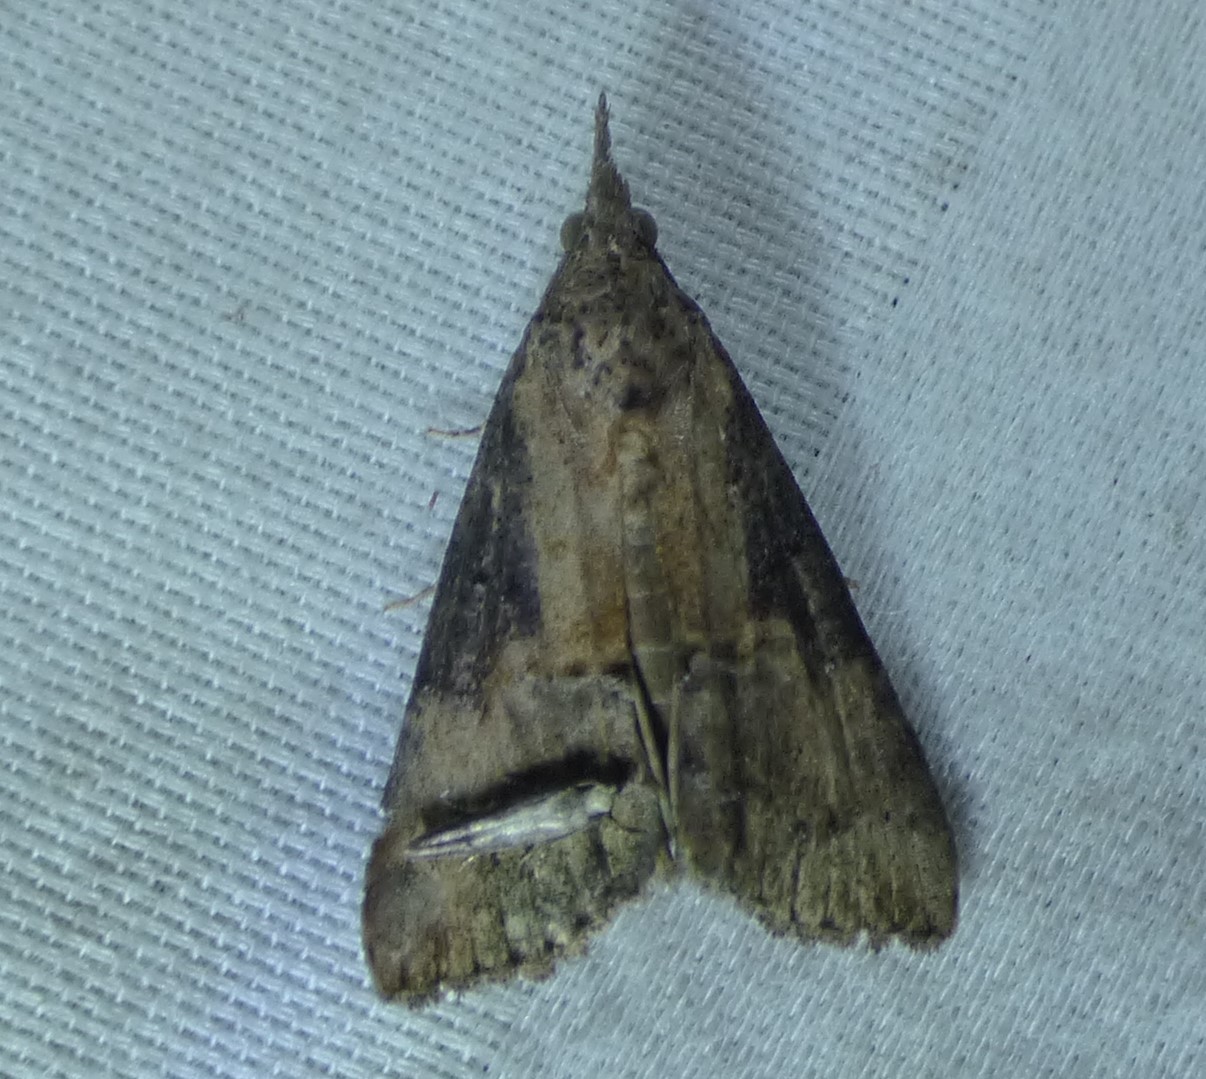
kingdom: Animalia
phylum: Arthropoda
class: Insecta
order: Lepidoptera
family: Erebidae
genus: Hypena
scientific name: Hypena scabra
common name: Green cloverworm
